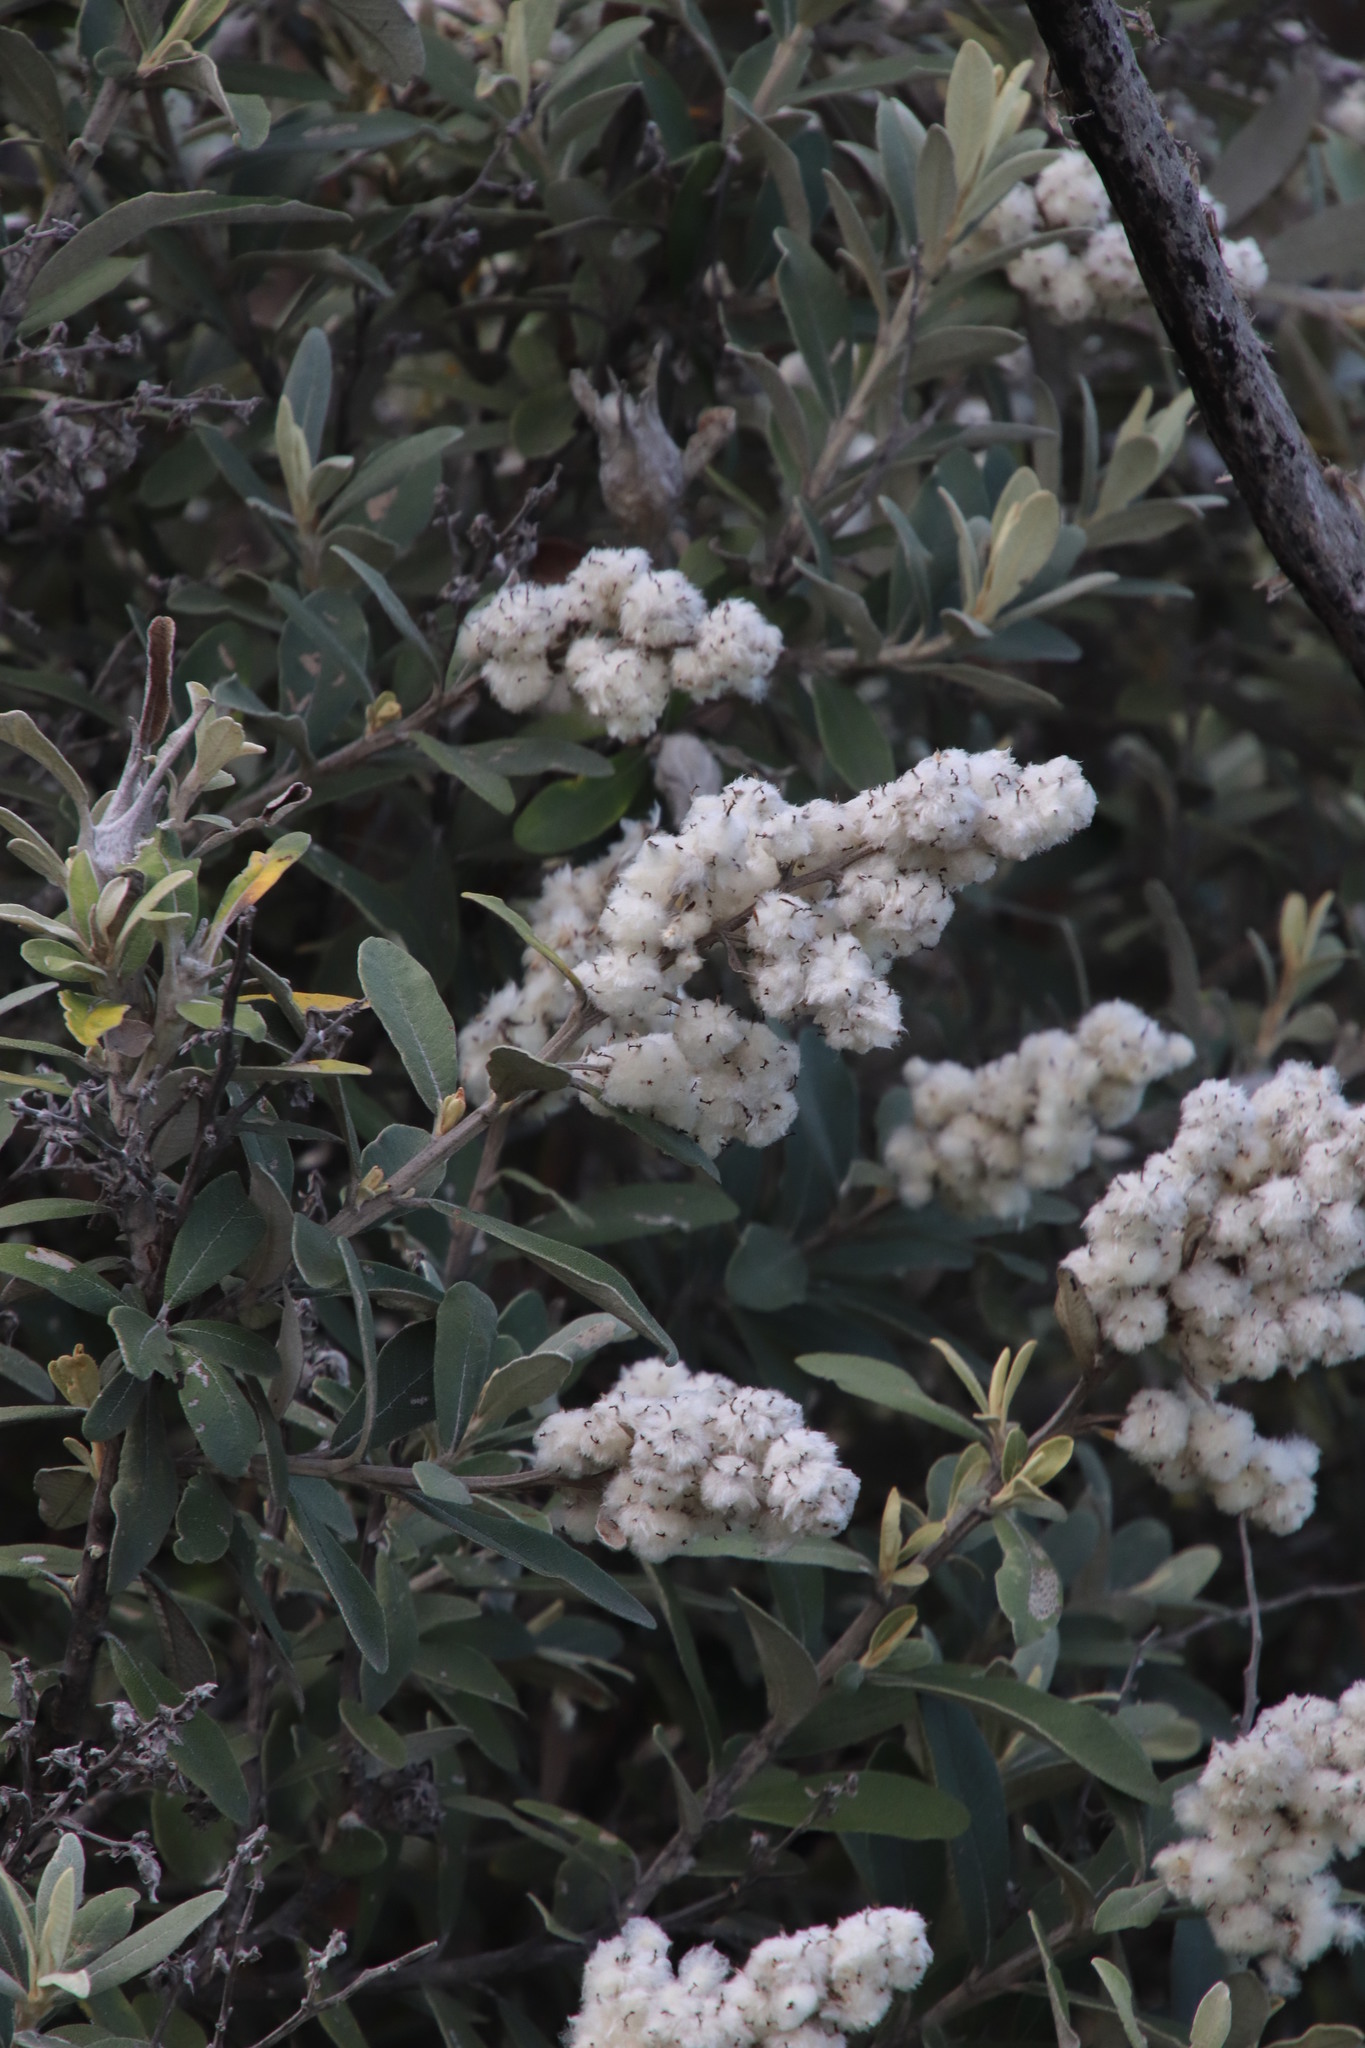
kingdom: Plantae
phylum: Tracheophyta
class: Magnoliopsida
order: Asterales
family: Asteraceae
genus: Tarchonanthus
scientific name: Tarchonanthus littoralis
